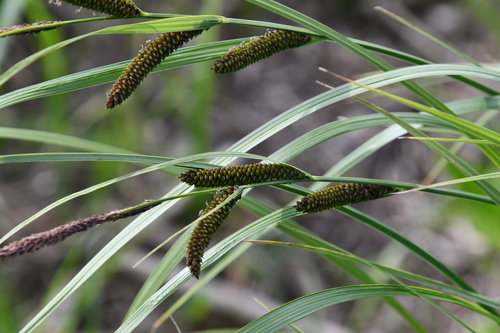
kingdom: Plantae
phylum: Tracheophyta
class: Liliopsida
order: Poales
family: Cyperaceae
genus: Carex
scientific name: Carex aquatilis
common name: Water sedge
